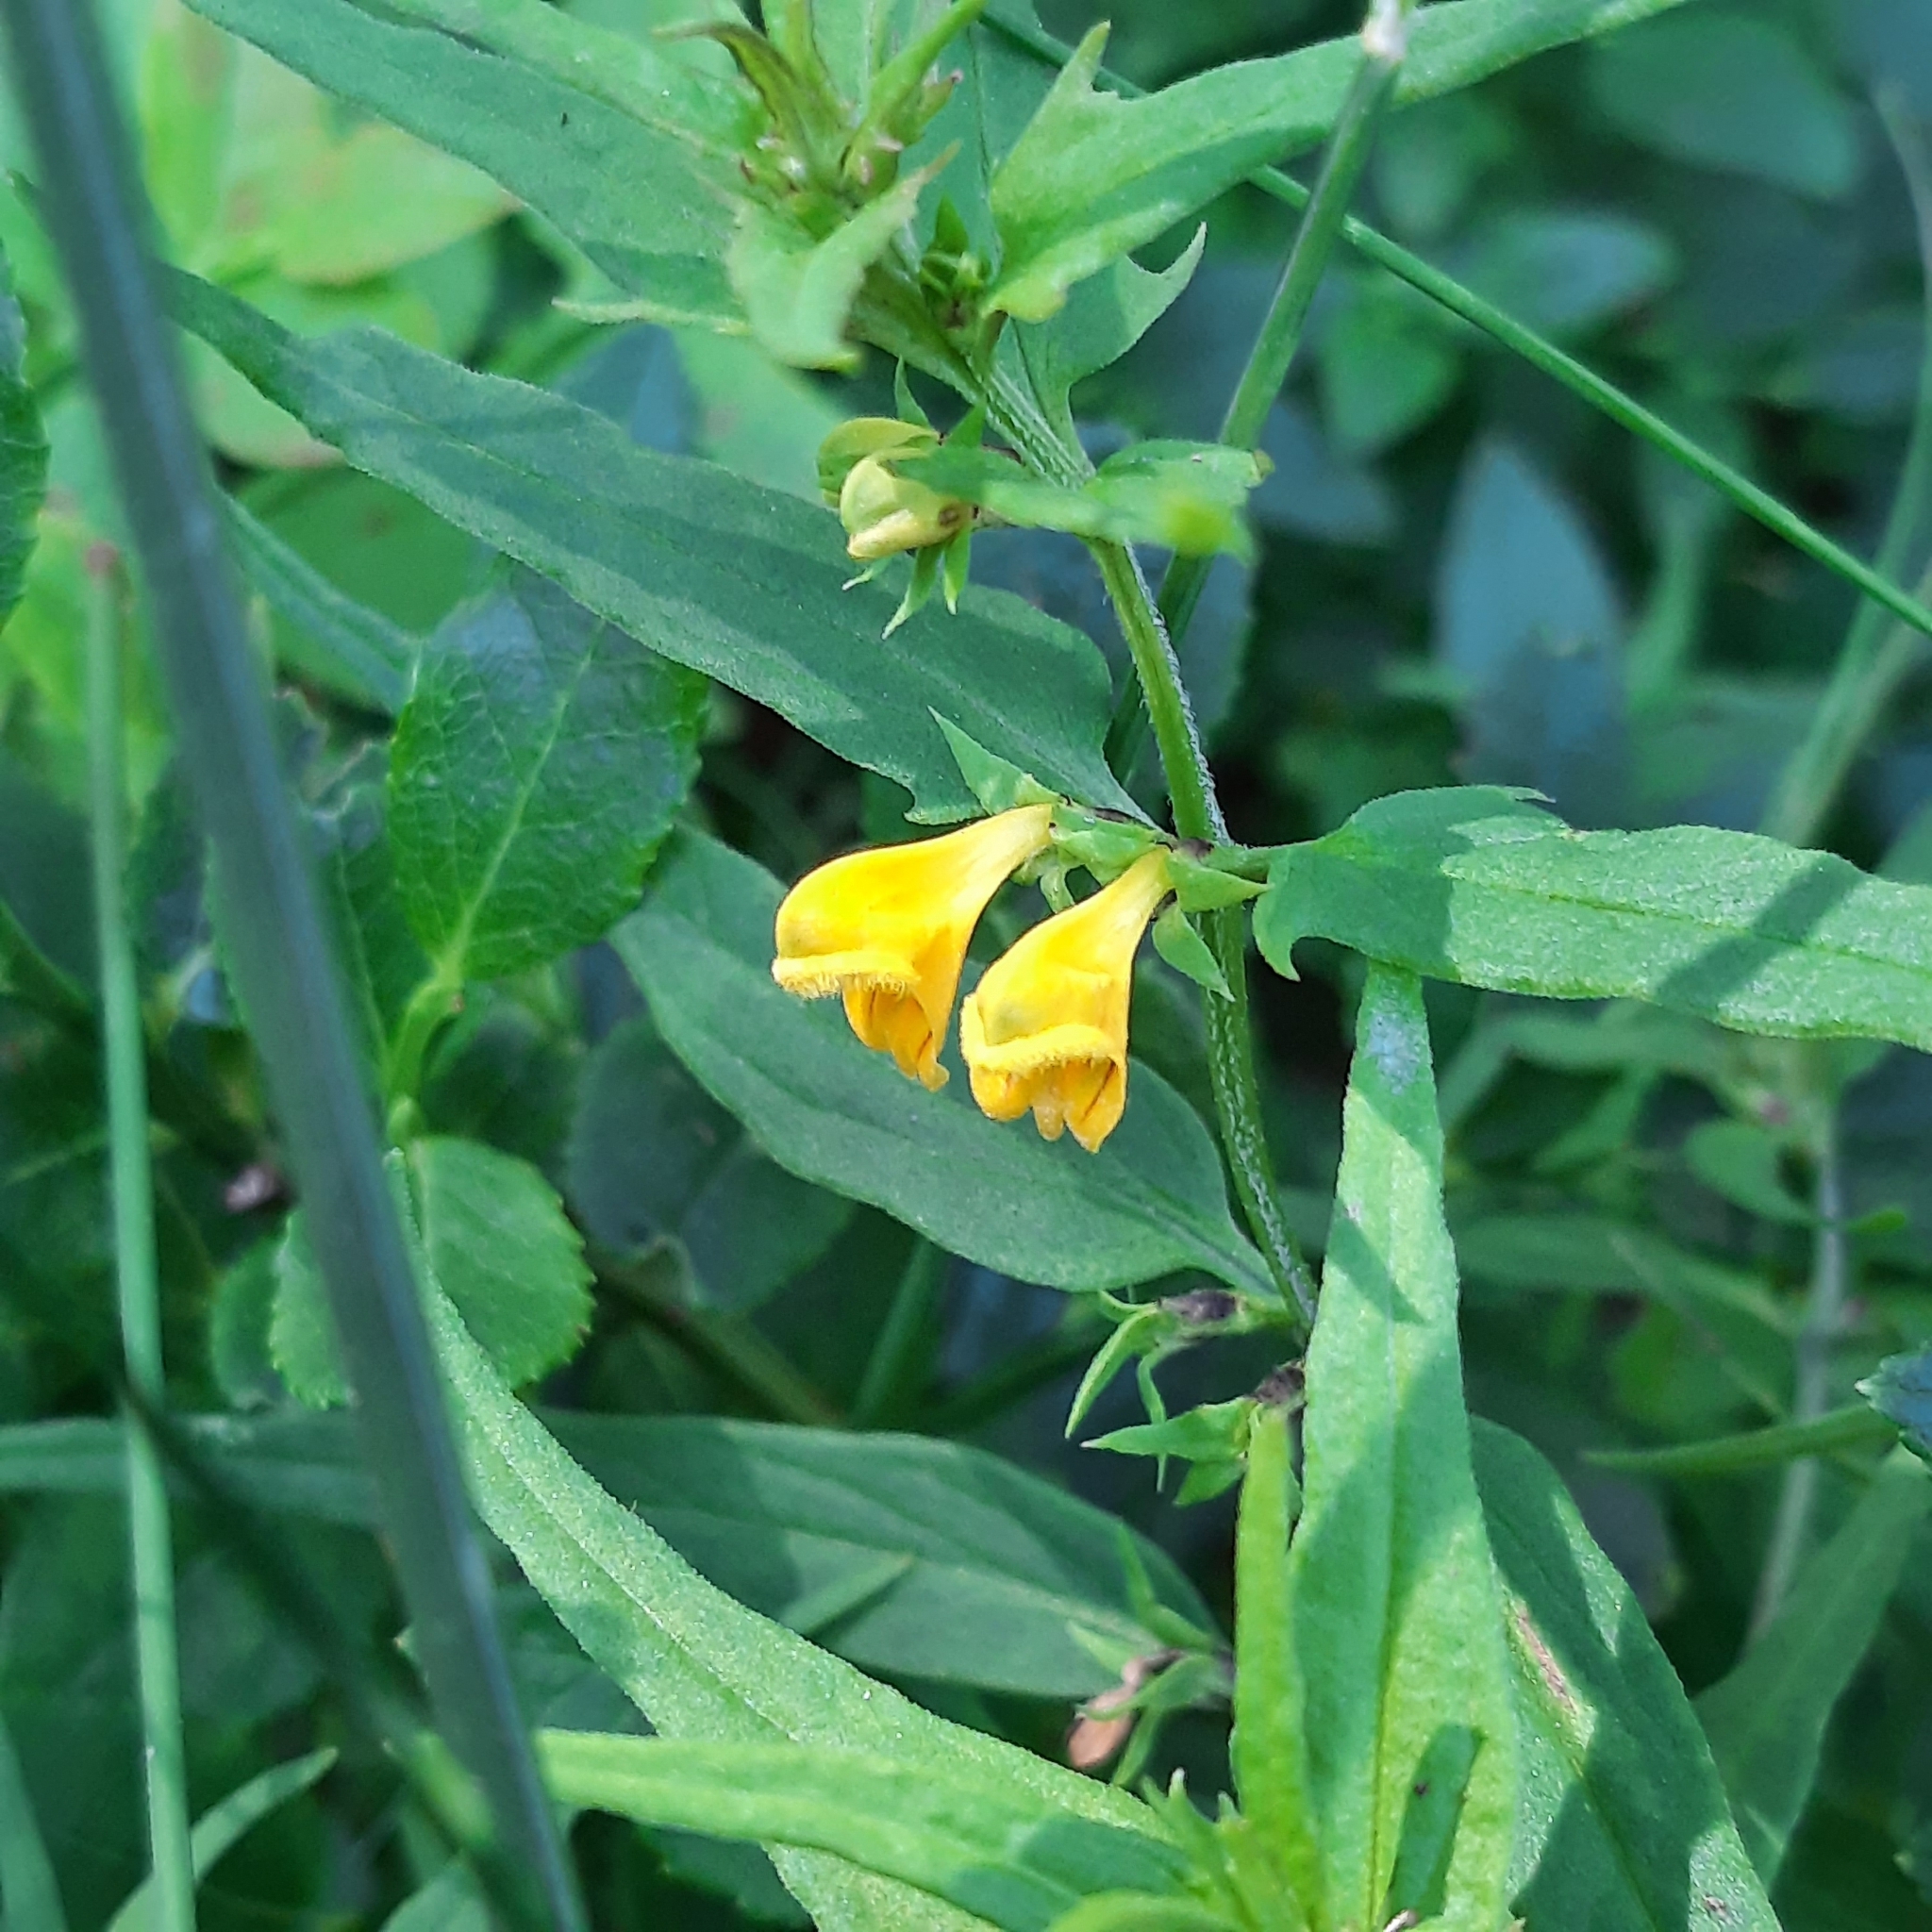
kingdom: Plantae
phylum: Tracheophyta
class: Magnoliopsida
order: Lamiales
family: Orobanchaceae
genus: Melampyrum
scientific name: Melampyrum sylvaticum
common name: Small cow-wheat
